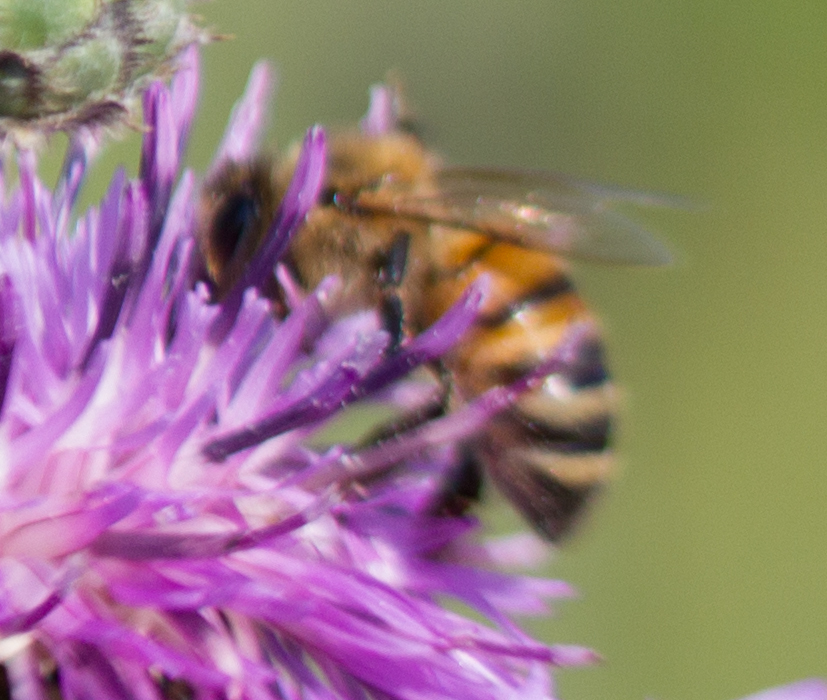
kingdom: Animalia
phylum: Arthropoda
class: Insecta
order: Hymenoptera
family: Apidae
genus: Apis
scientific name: Apis mellifera
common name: Honey bee
